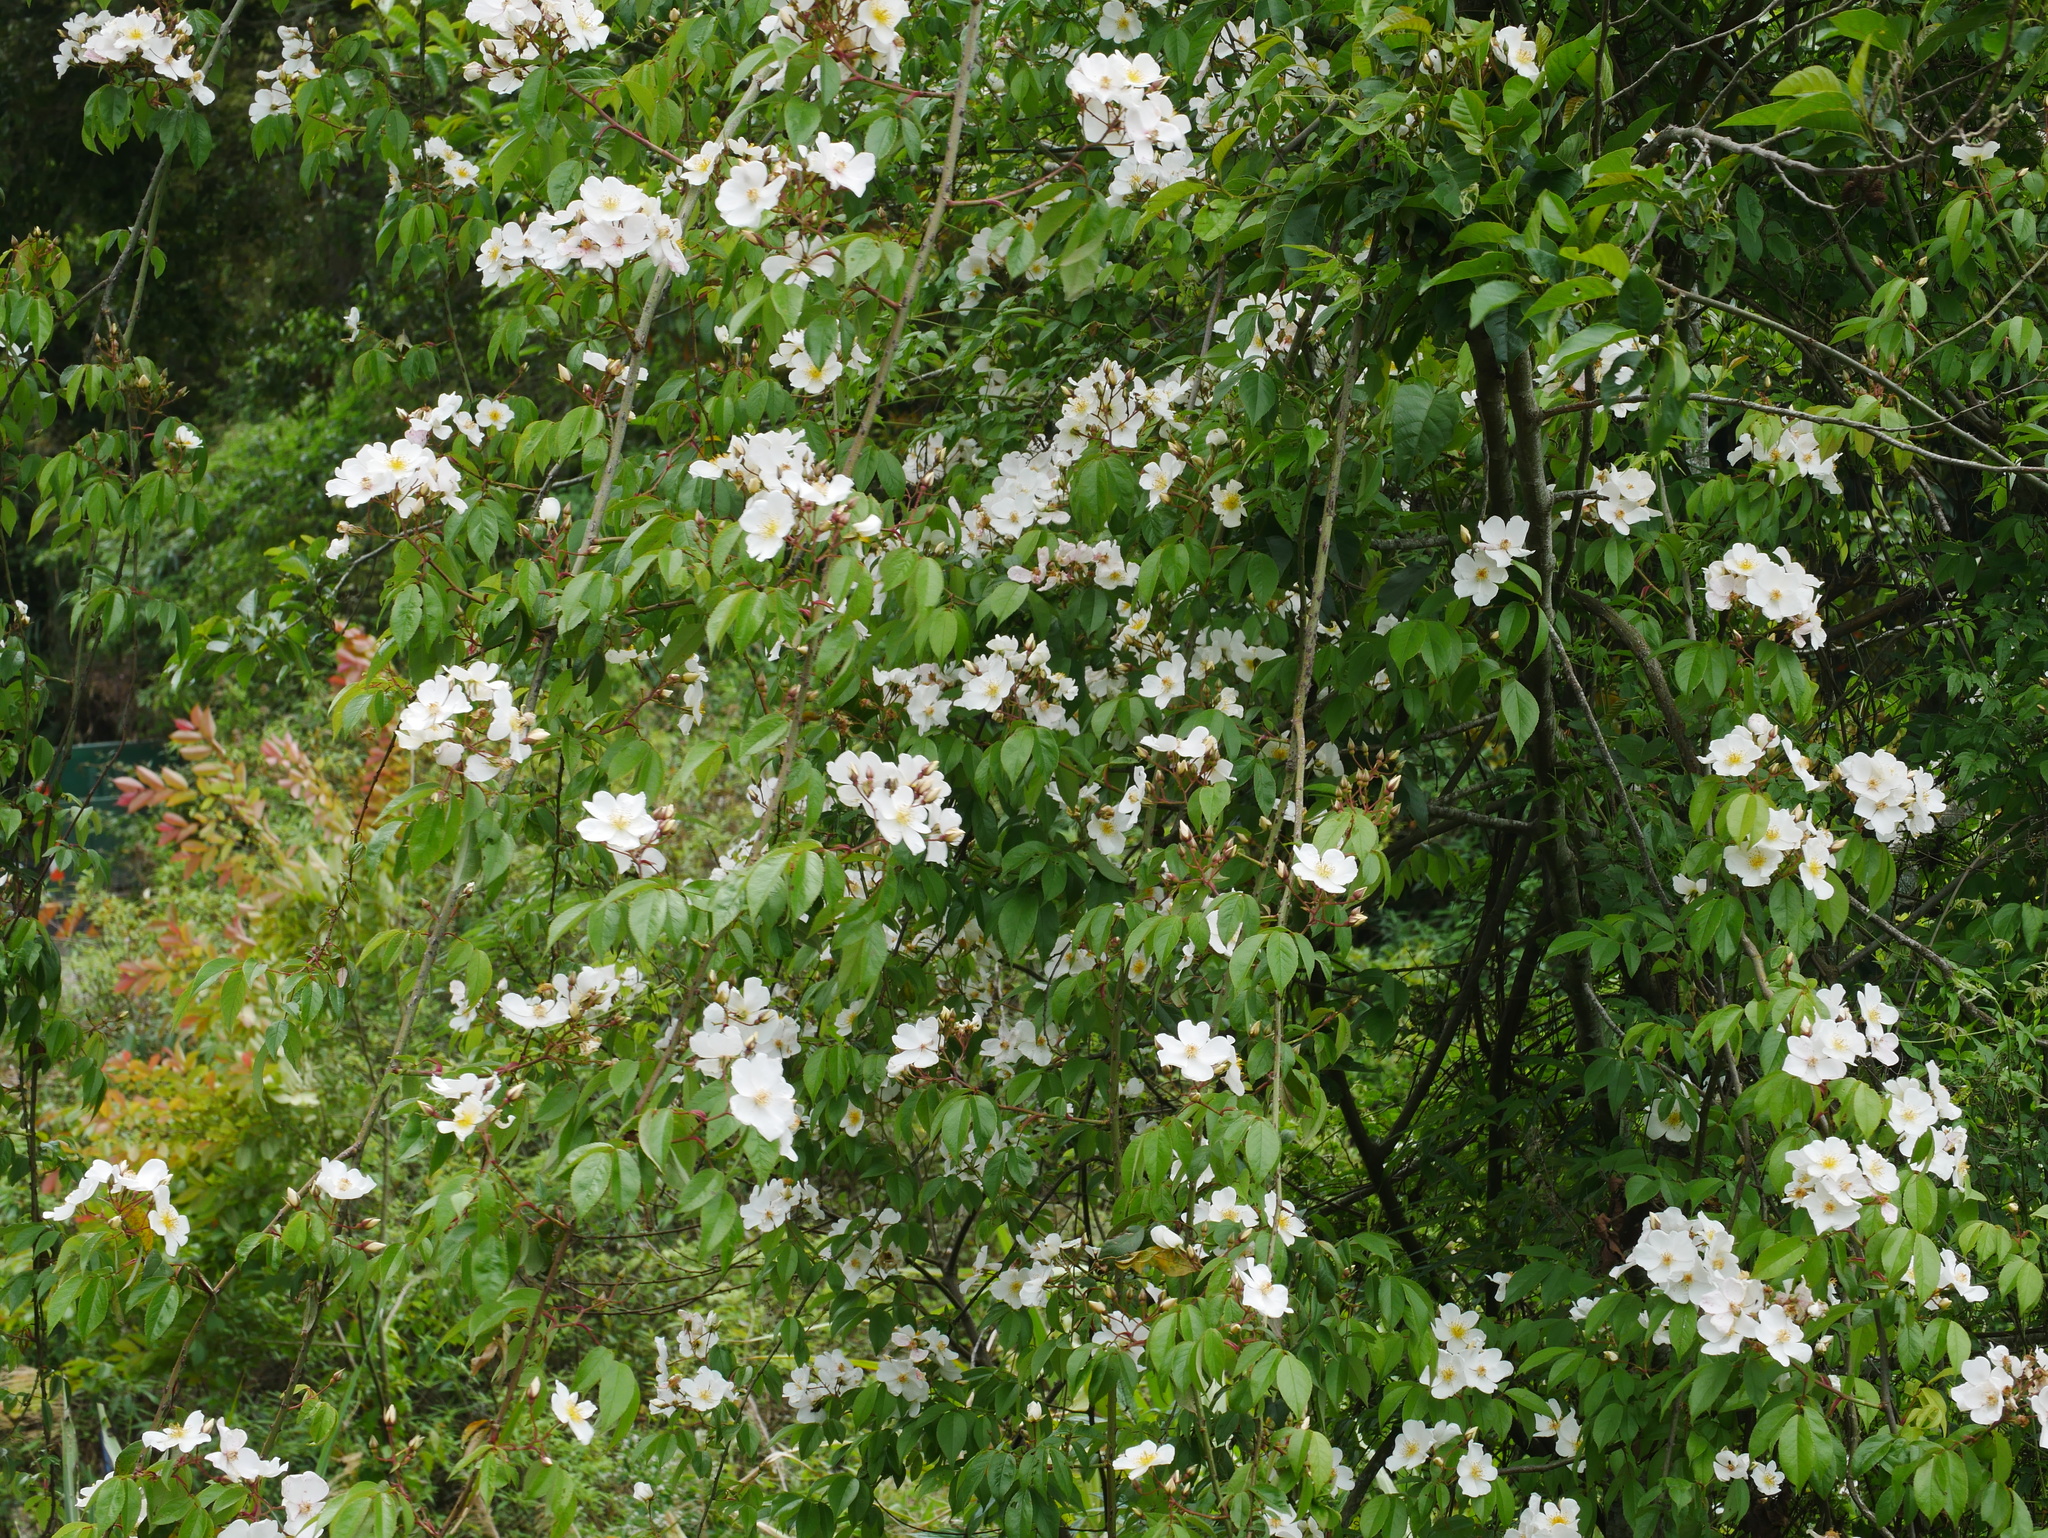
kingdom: Plantae
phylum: Tracheophyta
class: Magnoliopsida
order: Rosales
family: Rosaceae
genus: Rosa
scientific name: Rosa sambucina
